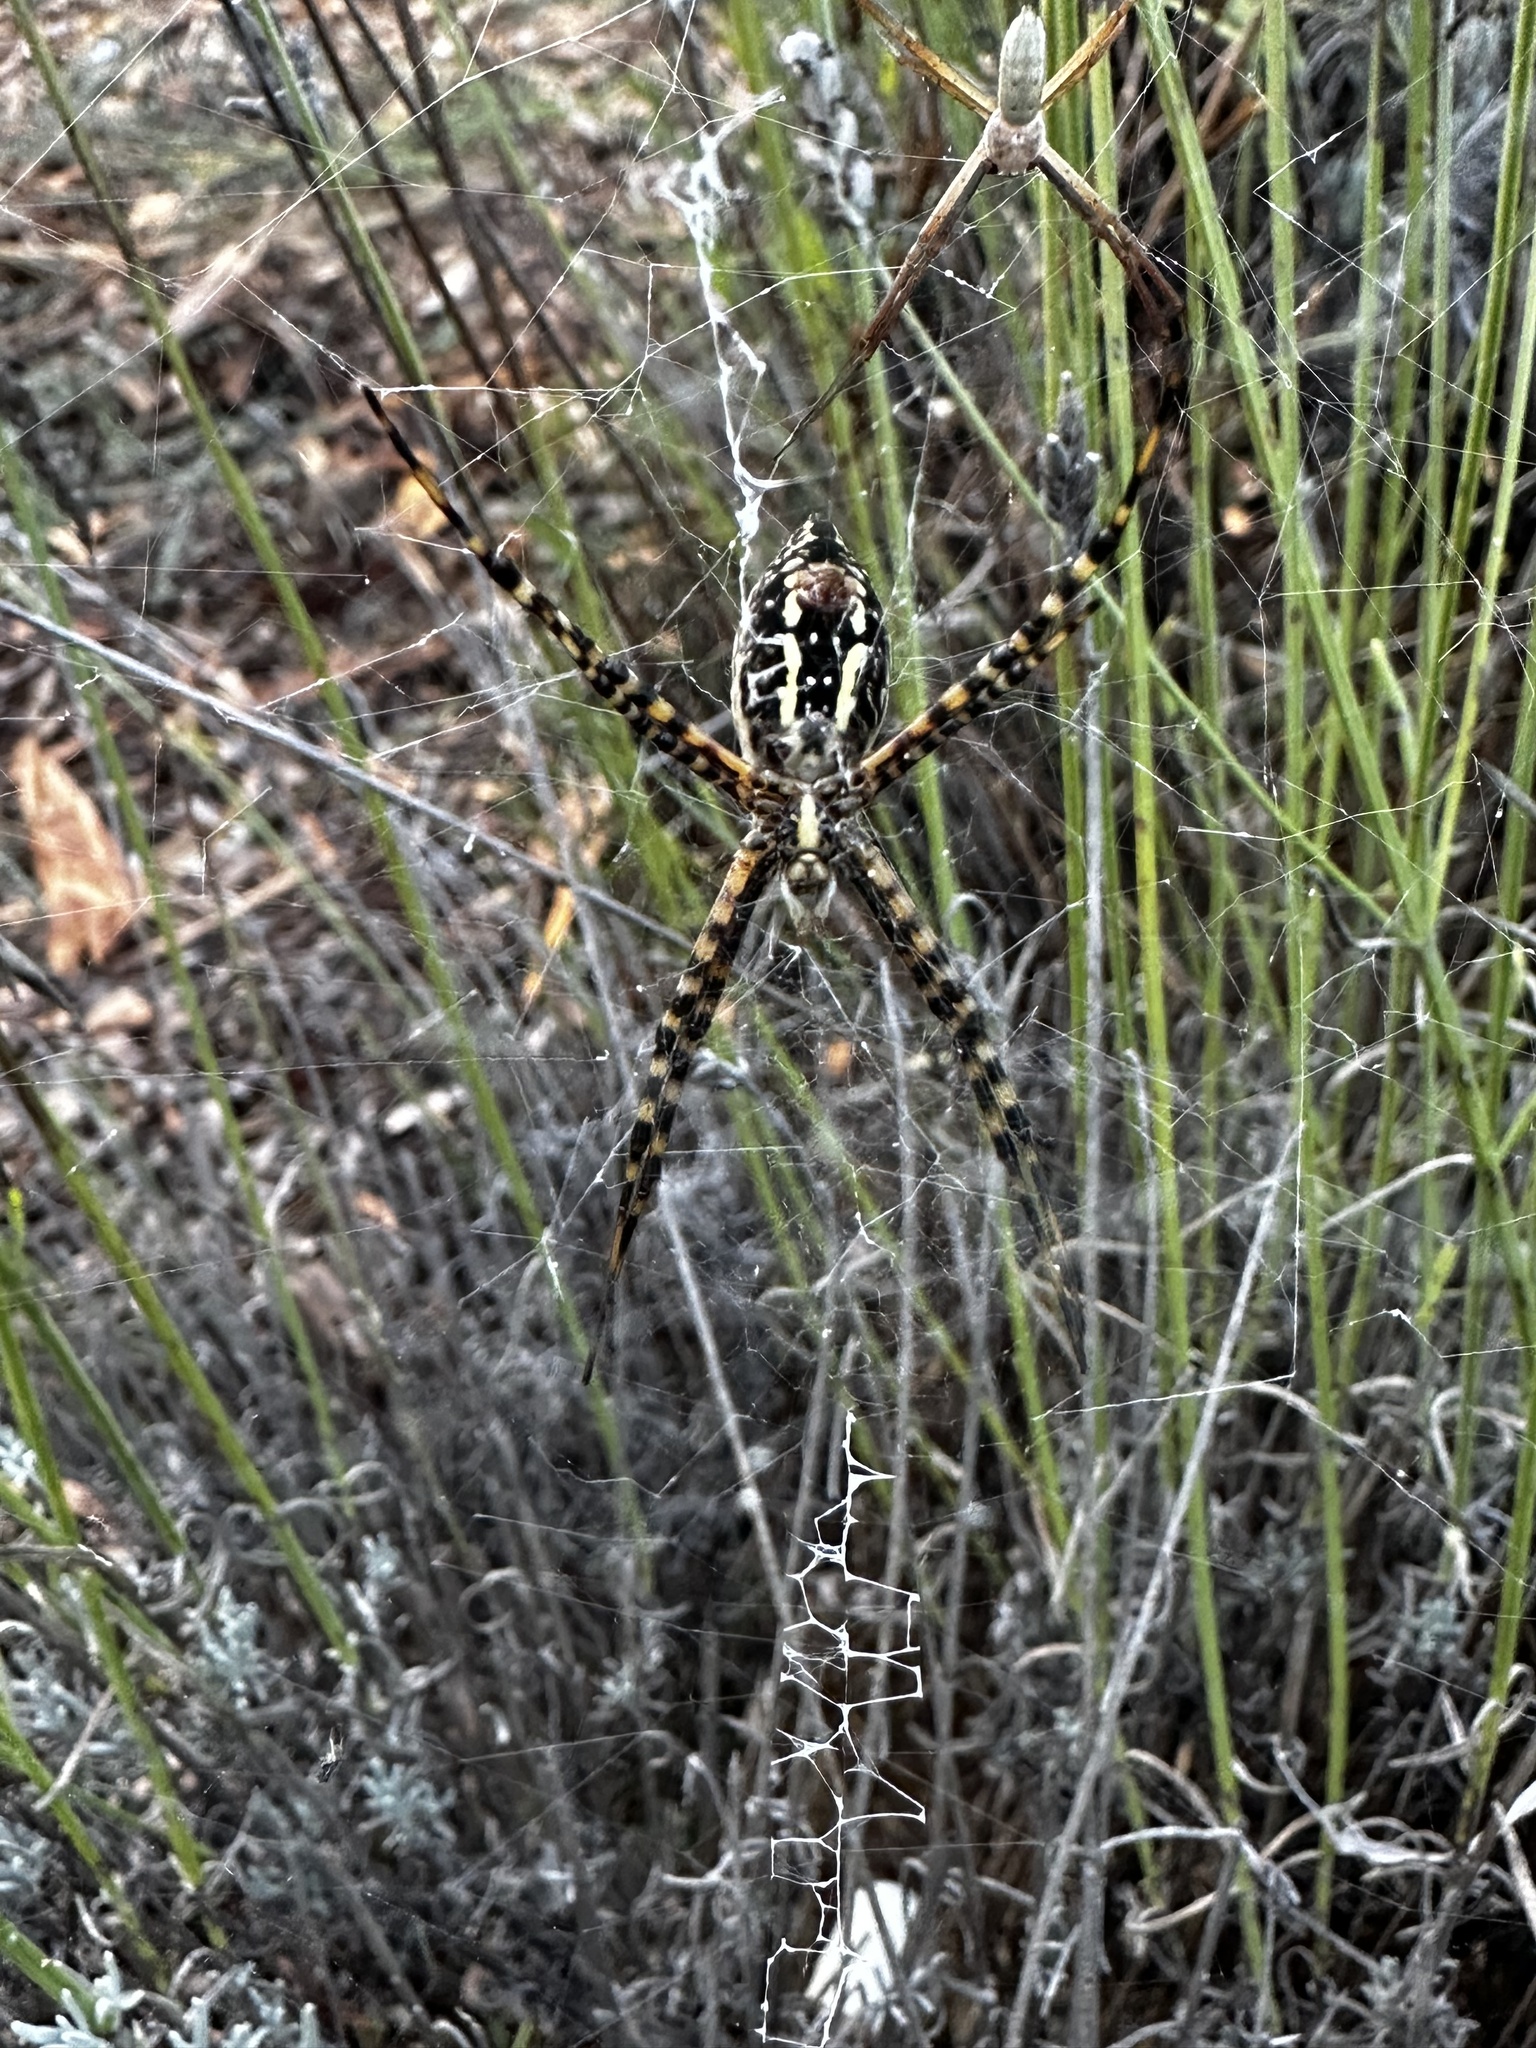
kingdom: Animalia
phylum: Arthropoda
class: Arachnida
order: Araneae
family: Araneidae
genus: Argiope
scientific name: Argiope trifasciata
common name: Banded garden spider
